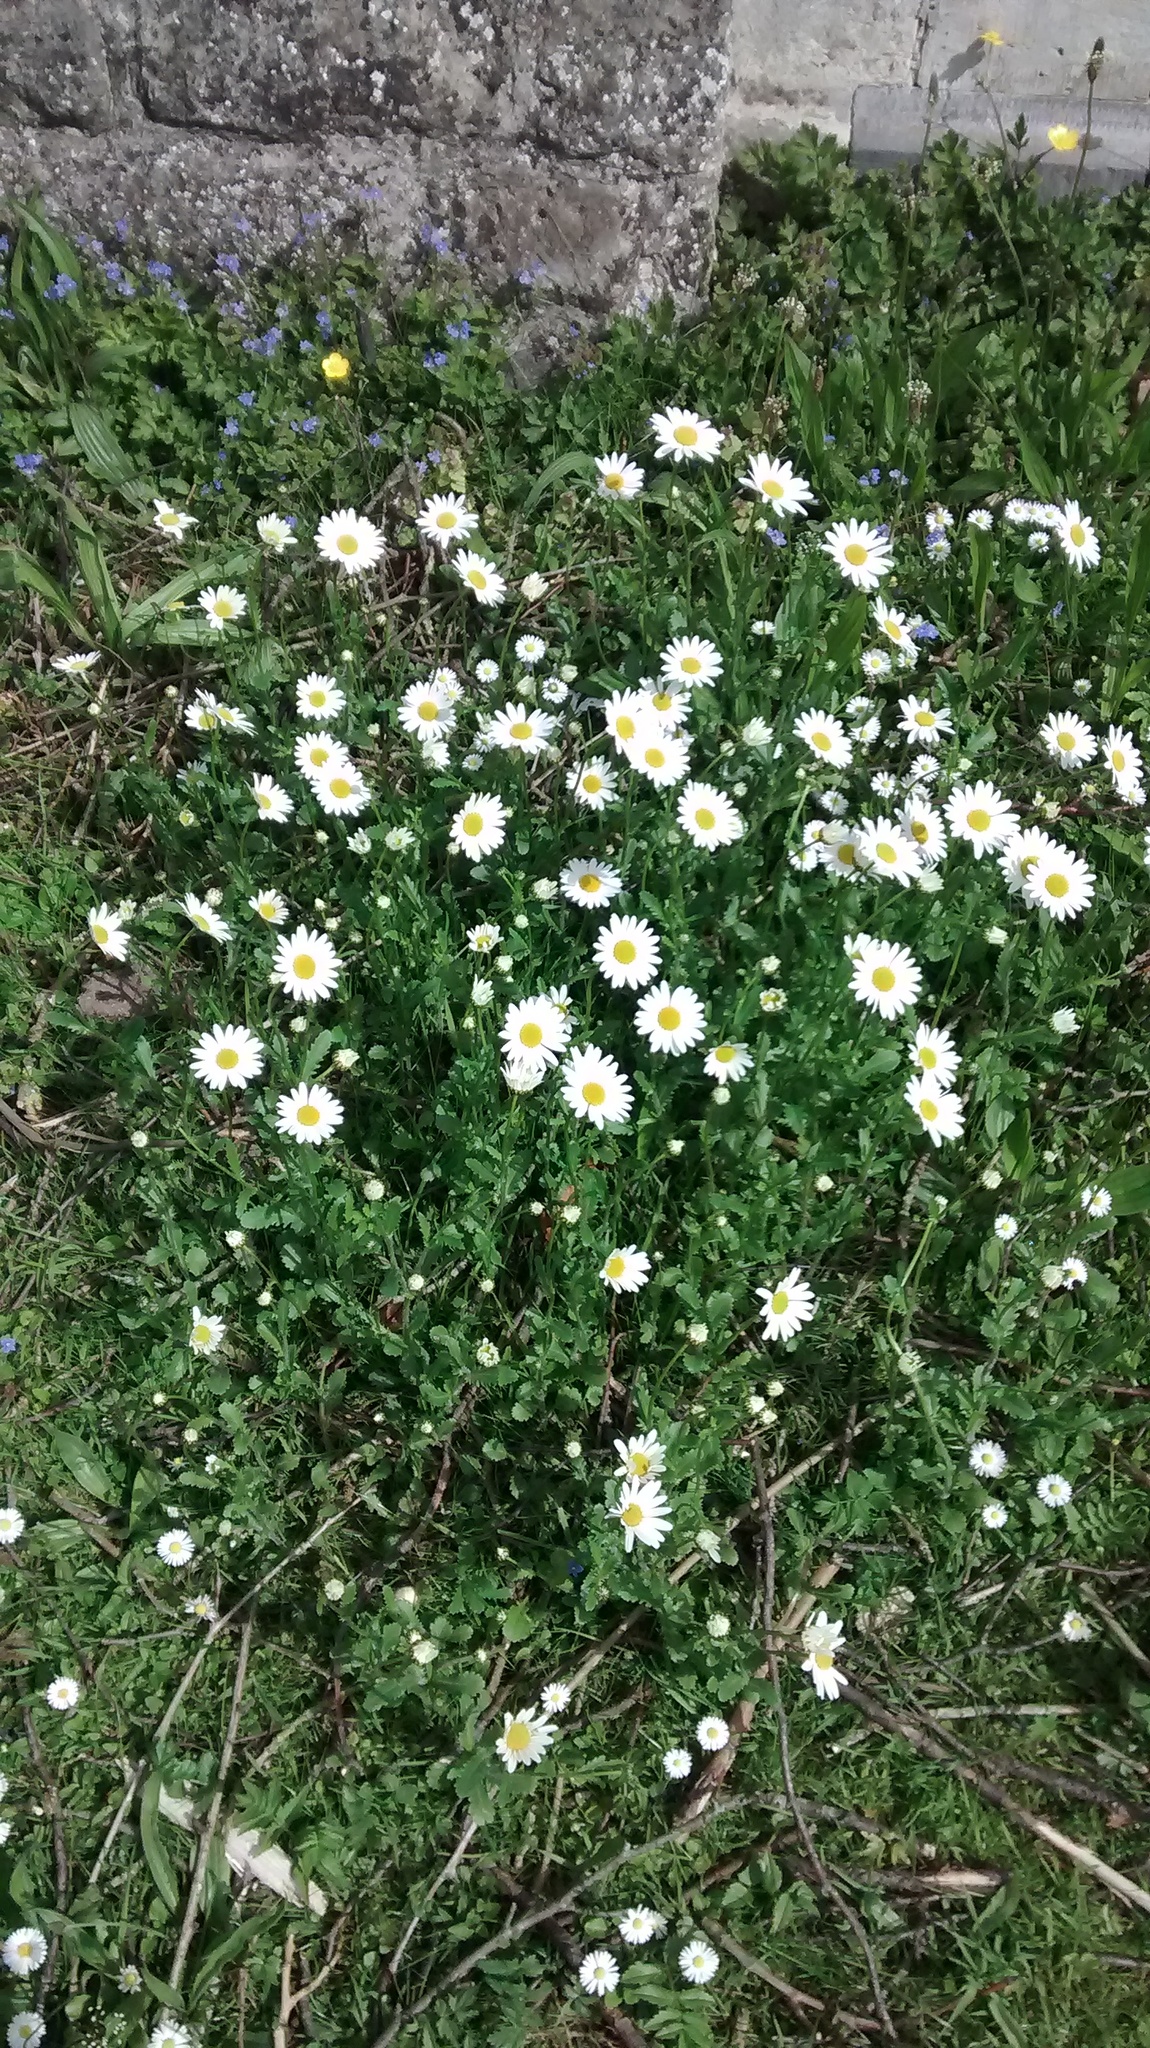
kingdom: Plantae
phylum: Tracheophyta
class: Magnoliopsida
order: Asterales
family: Asteraceae
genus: Leucanthemum
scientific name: Leucanthemum vulgare
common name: Oxeye daisy
